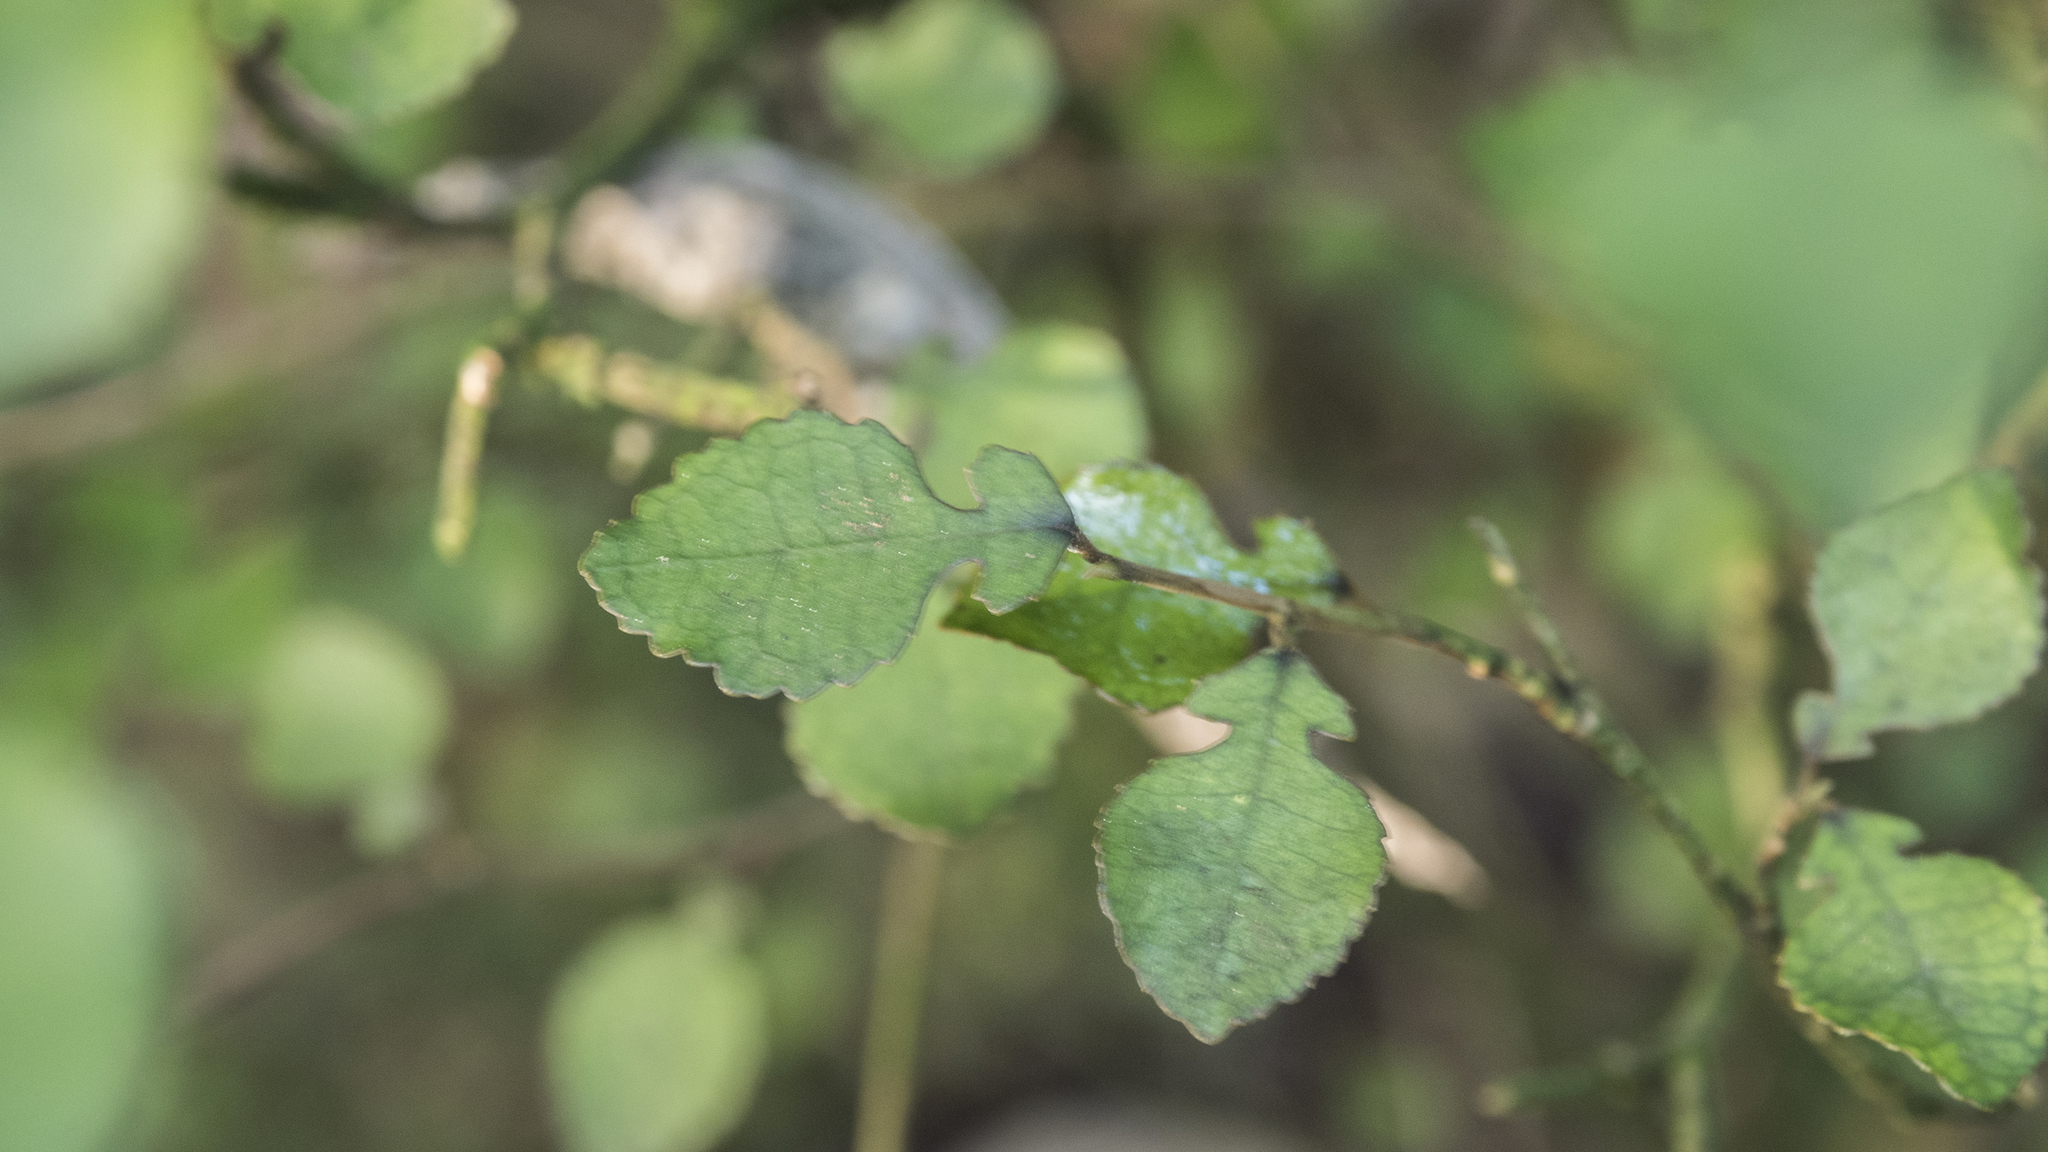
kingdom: Plantae
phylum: Tracheophyta
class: Magnoliopsida
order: Rosales
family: Moraceae
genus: Paratrophis
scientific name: Paratrophis microphylla
